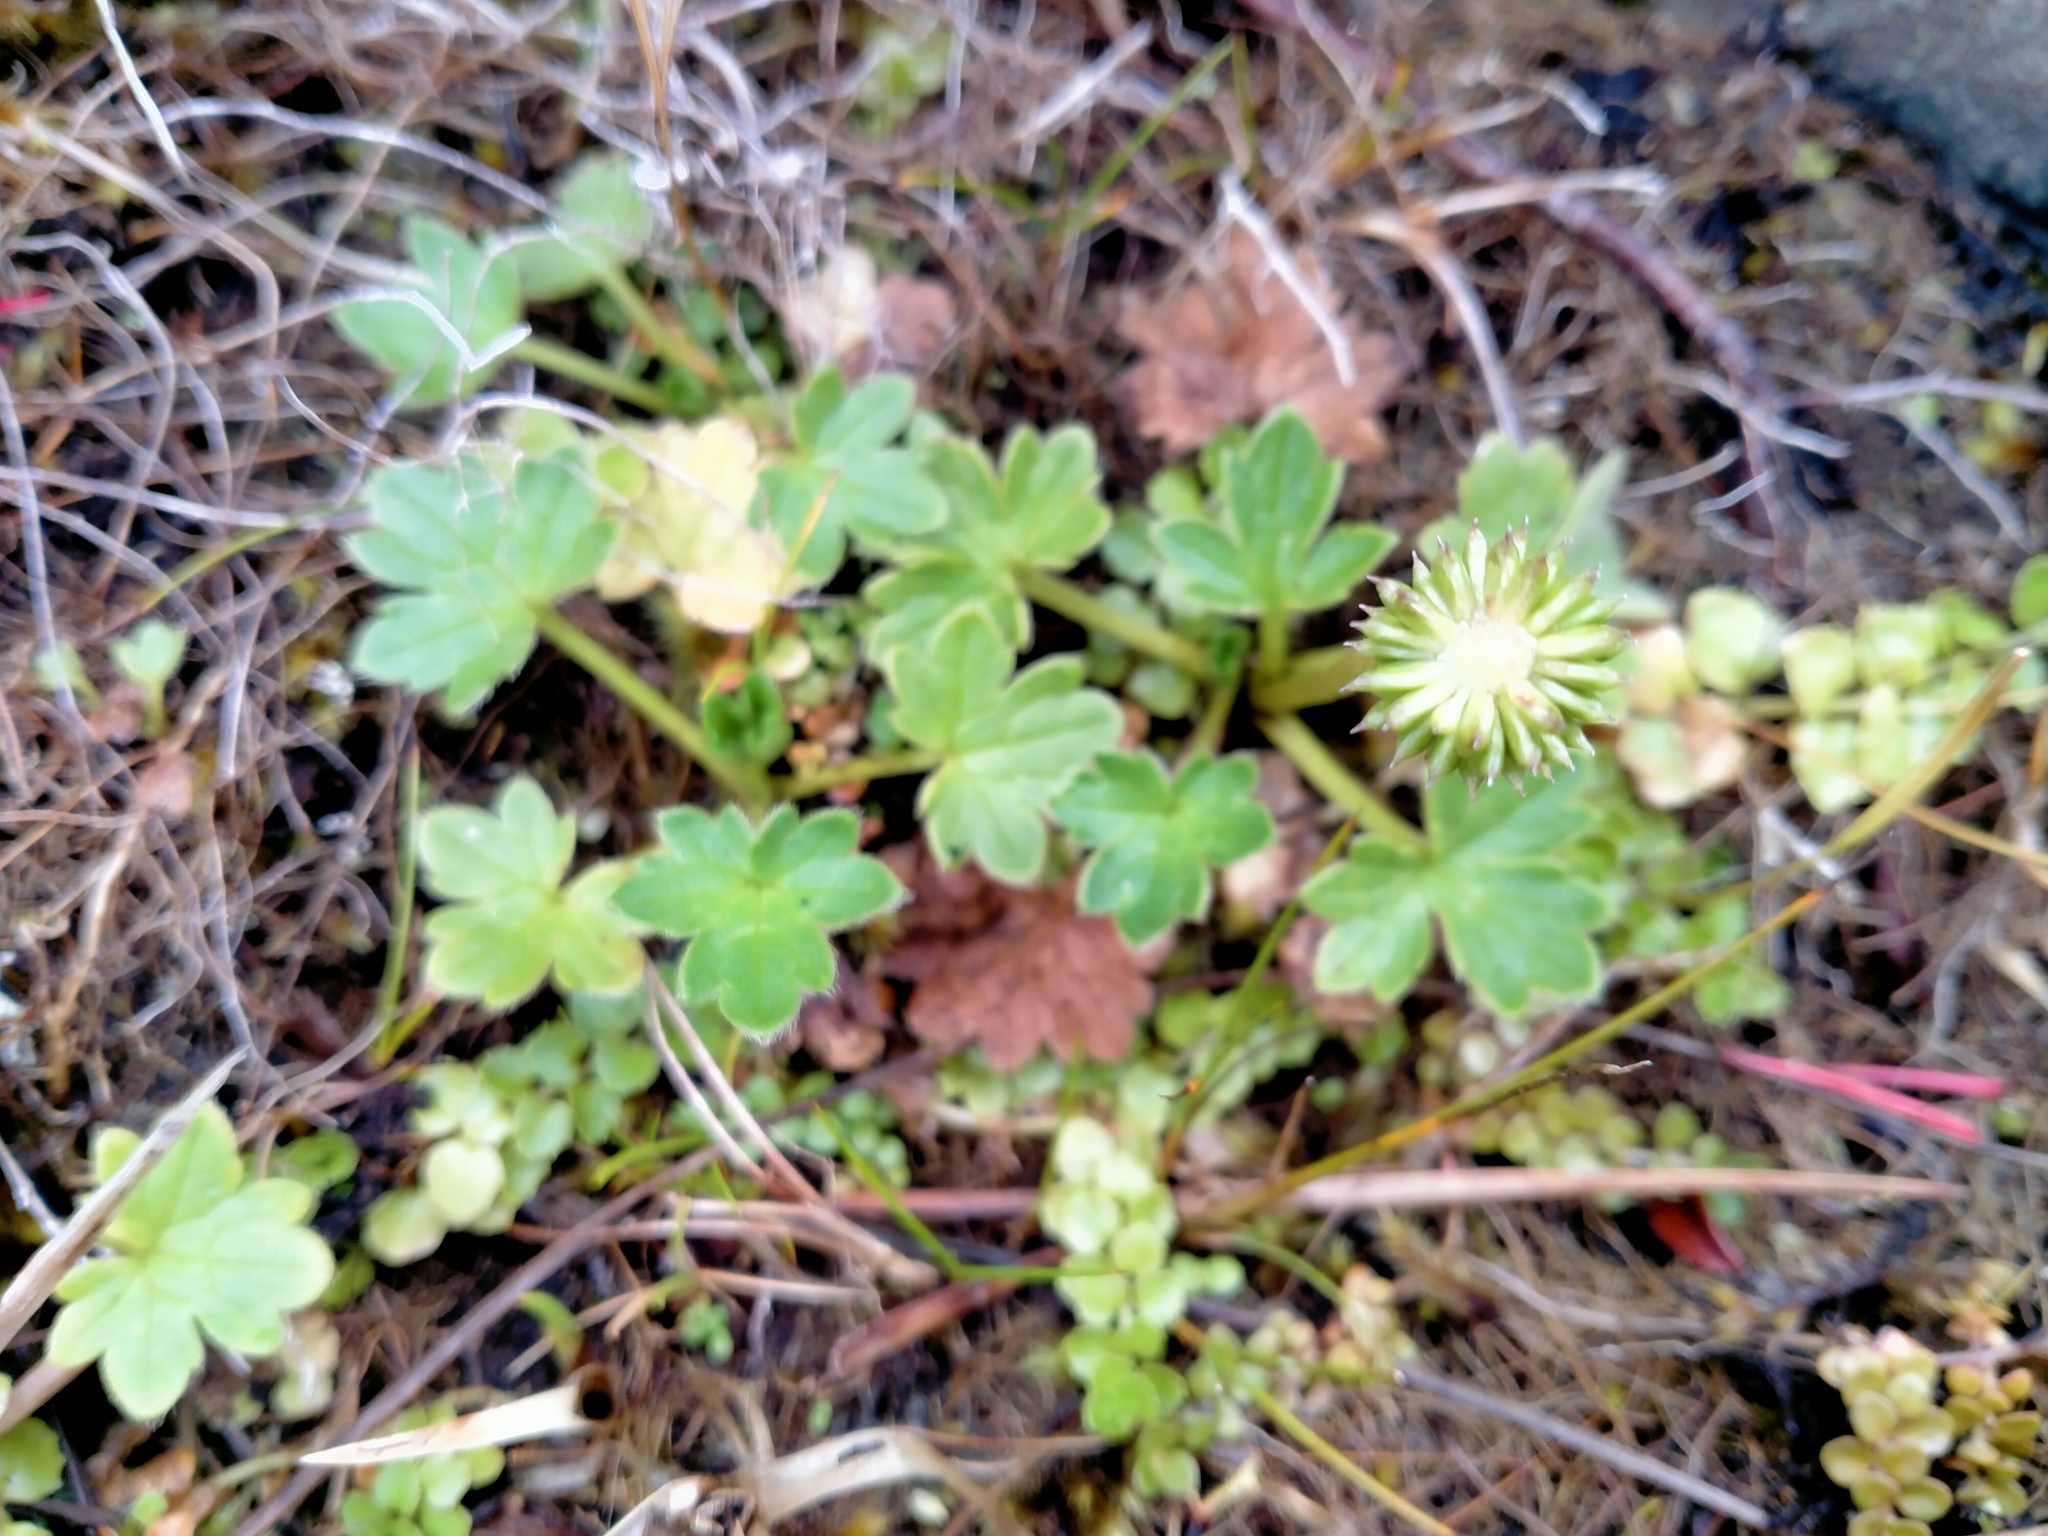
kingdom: Plantae
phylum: Tracheophyta
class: Magnoliopsida
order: Ranunculales
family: Ranunculaceae
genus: Ranunculus
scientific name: Ranunculus subscaposus
